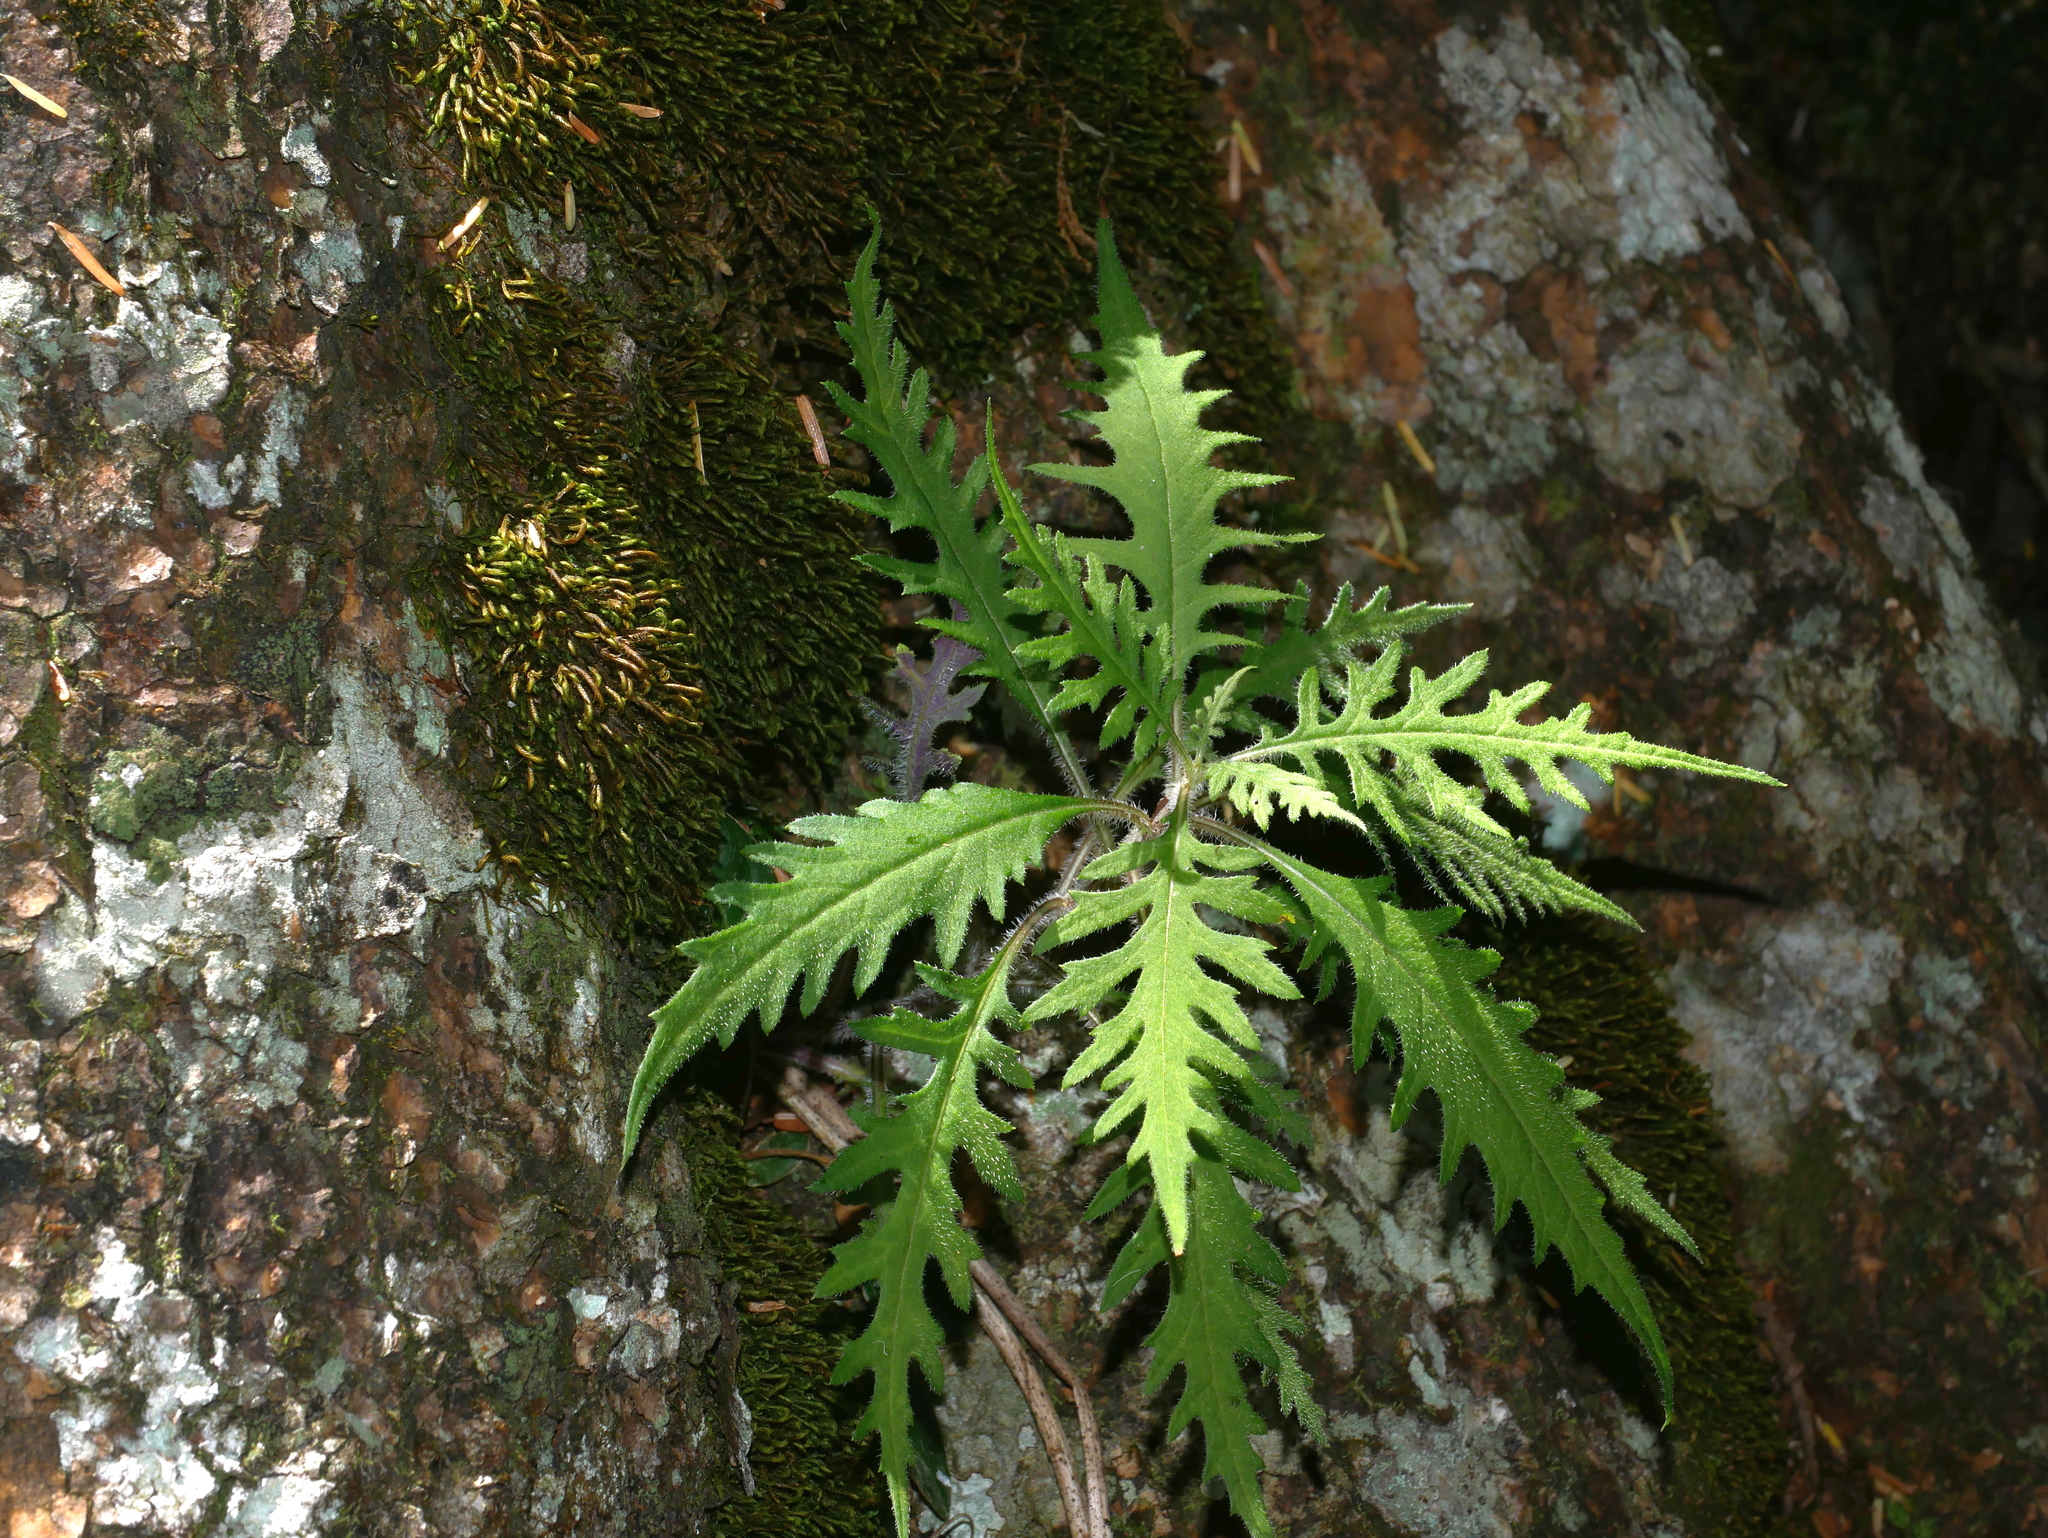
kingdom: Plantae
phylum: Tracheophyta
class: Magnoliopsida
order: Asterales
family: Asteraceae
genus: Jacobaea
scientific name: Jacobaea morrisonensis
